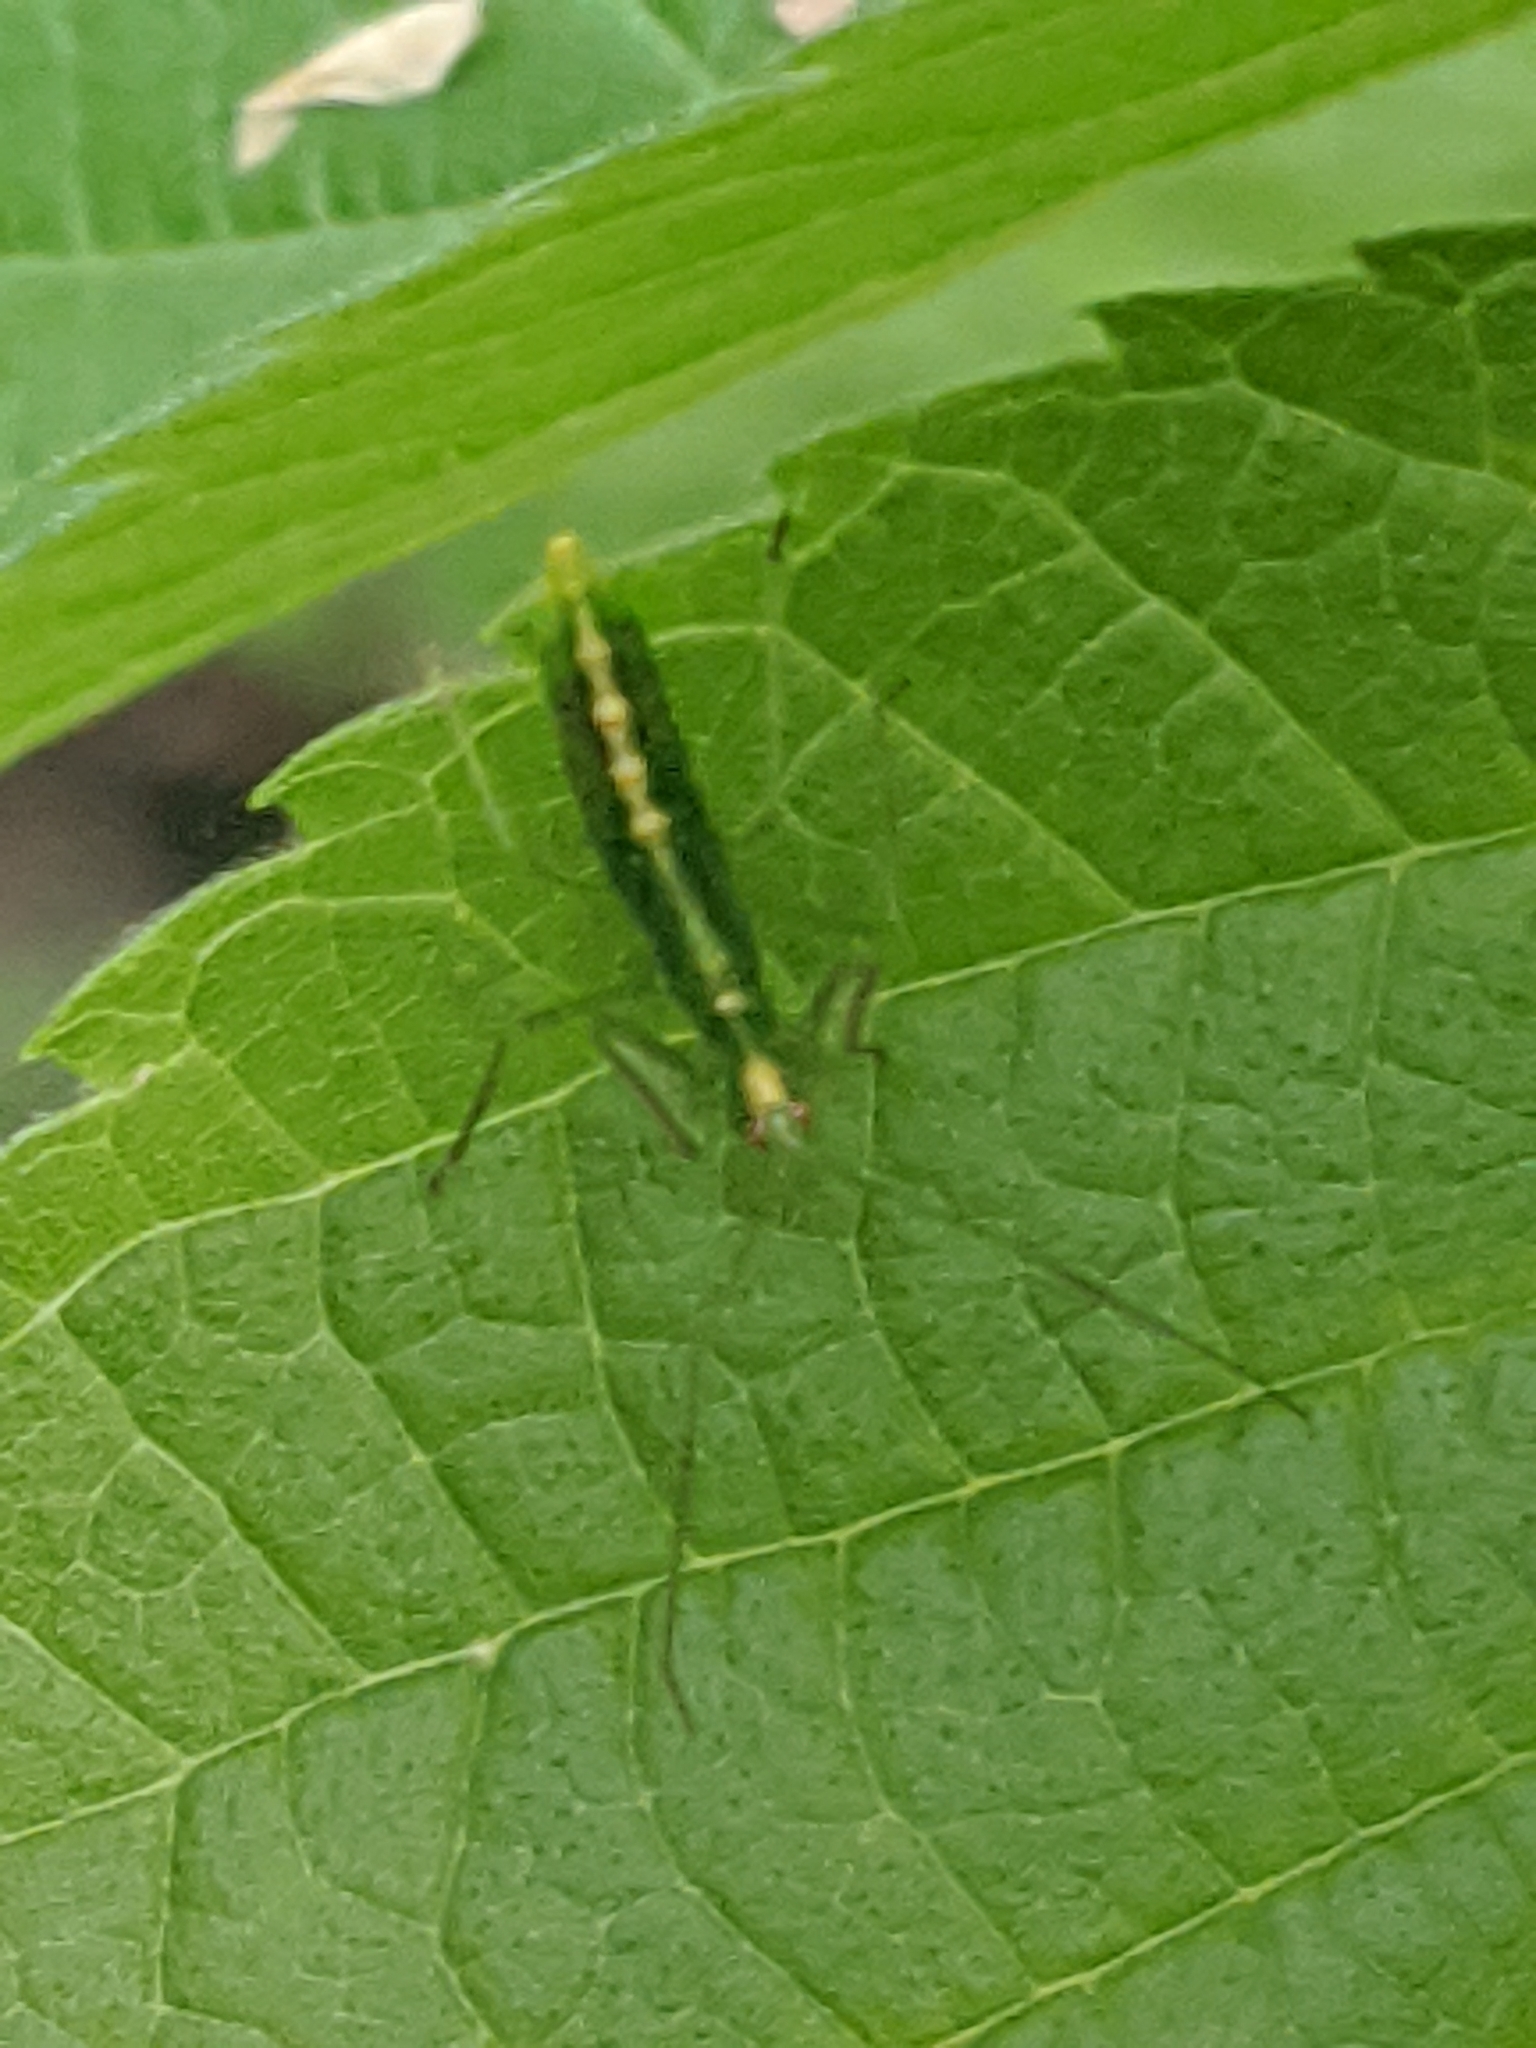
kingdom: Animalia
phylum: Arthropoda
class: Insecta
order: Hemiptera
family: Reduviidae
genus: Zelus
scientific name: Zelus luridus
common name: Pale green assassin bug
